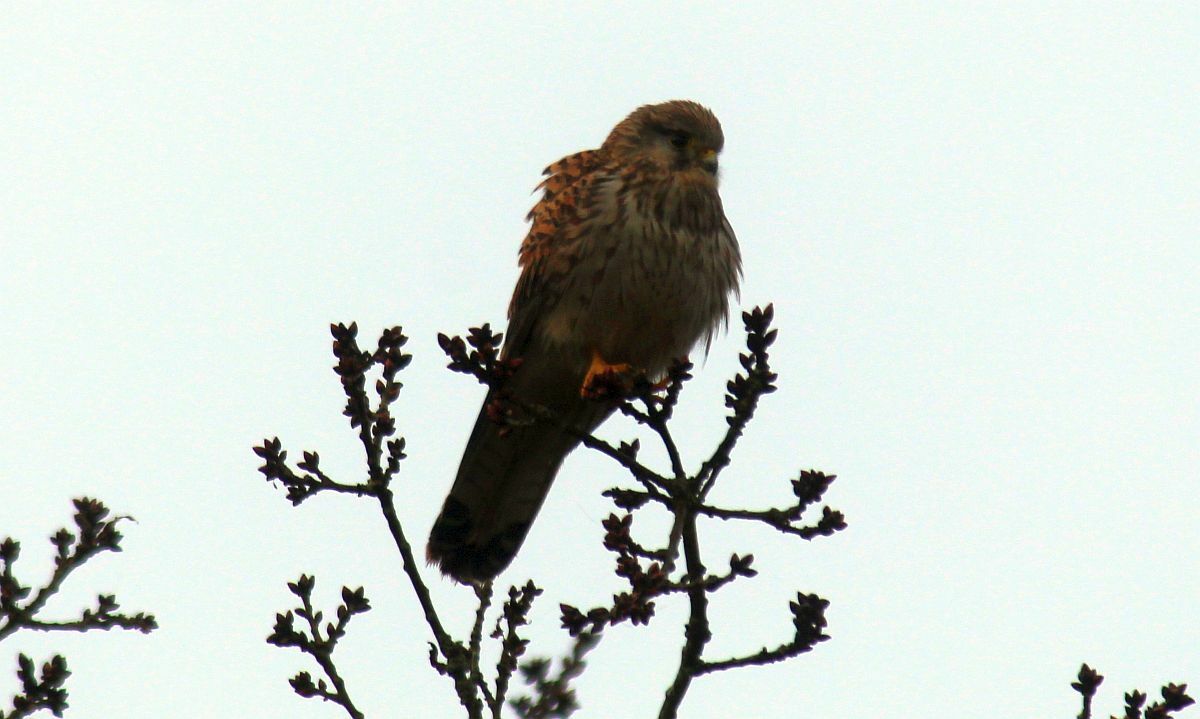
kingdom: Animalia
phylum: Chordata
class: Aves
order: Falconiformes
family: Falconidae
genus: Falco
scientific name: Falco tinnunculus
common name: Common kestrel
